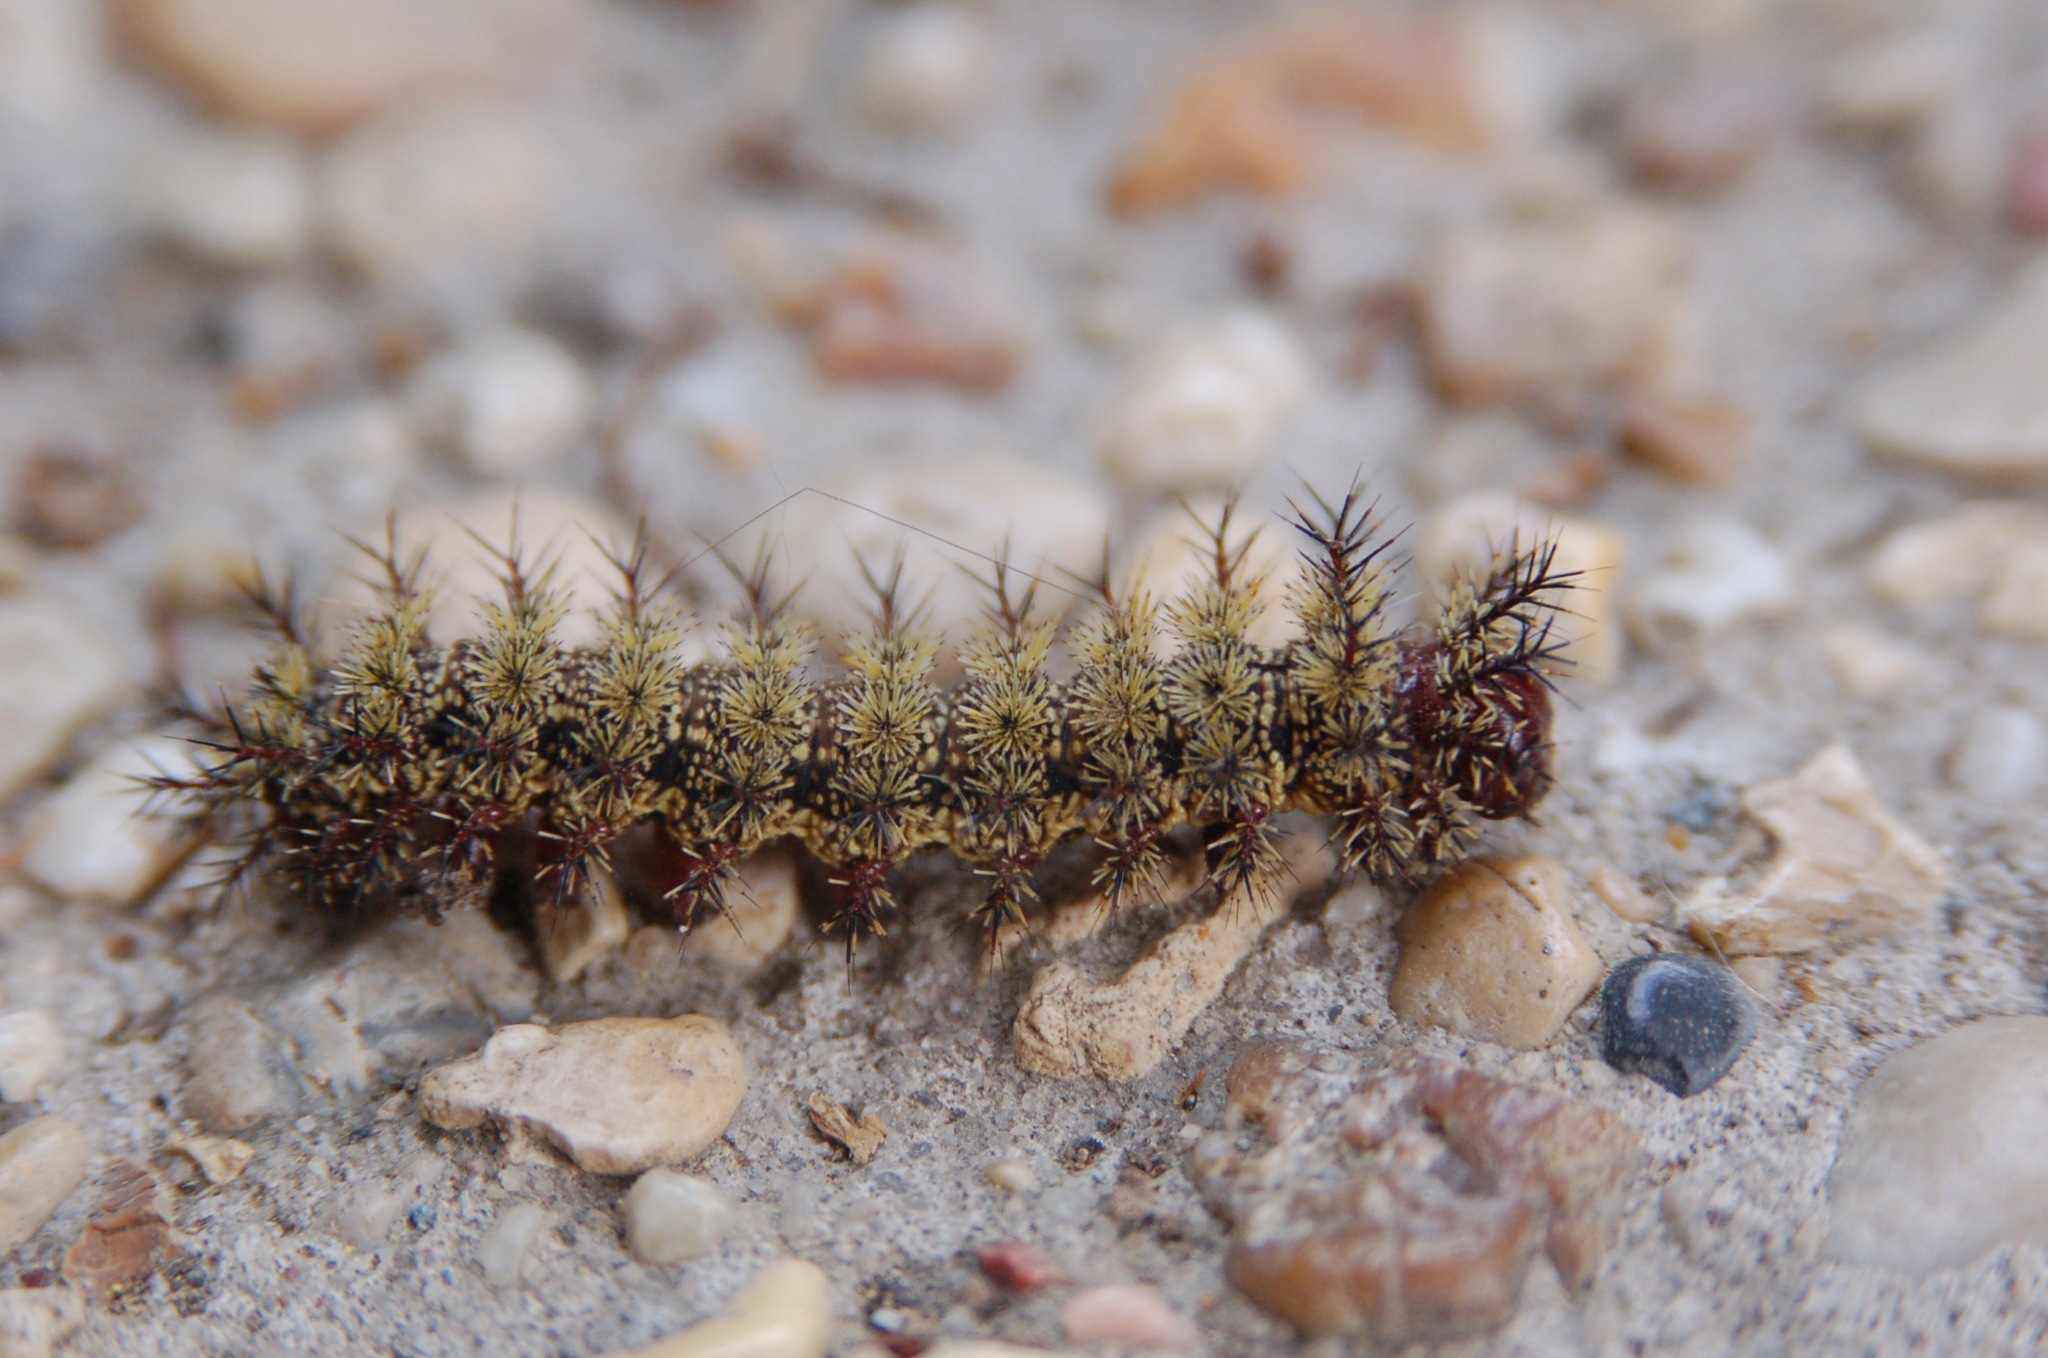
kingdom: Animalia
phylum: Arthropoda
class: Insecta
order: Lepidoptera
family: Saturniidae
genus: Hemileuca
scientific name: Hemileuca maia
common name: Eastern buckmoth
